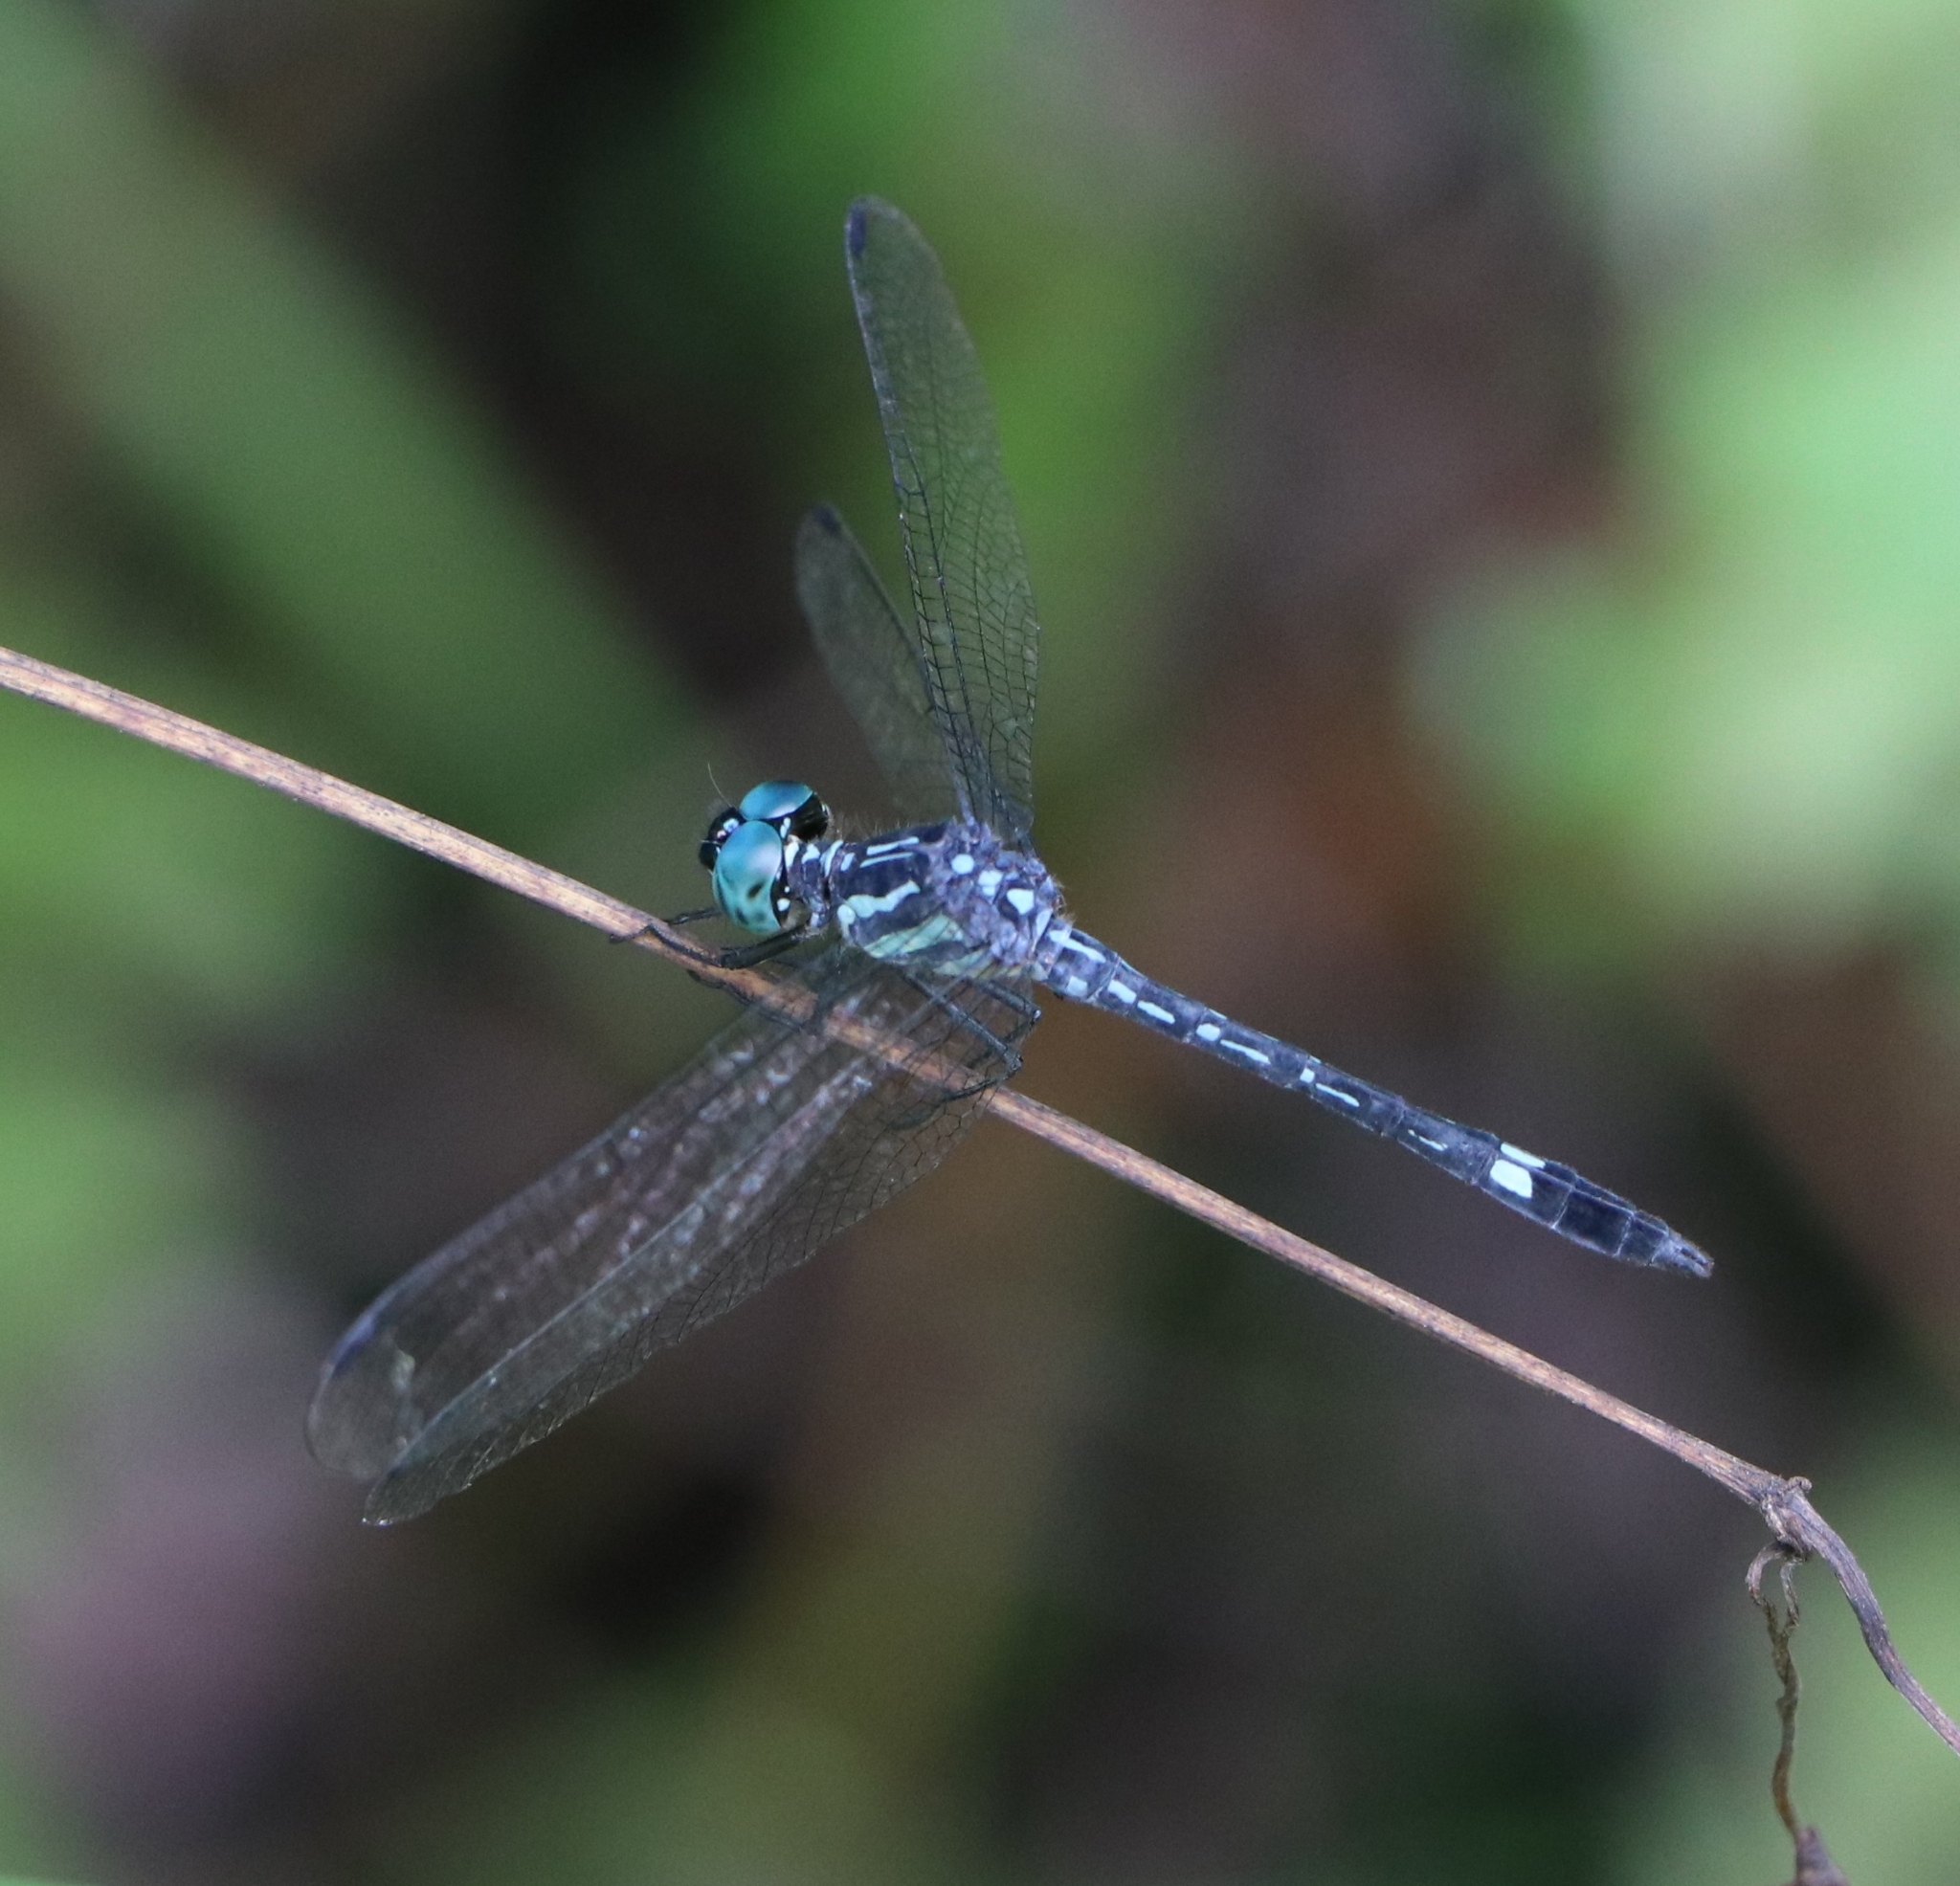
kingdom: Animalia
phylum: Arthropoda
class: Insecta
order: Odonata
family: Libellulidae
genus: Hylaeothemis
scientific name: Hylaeothemis apicalis
